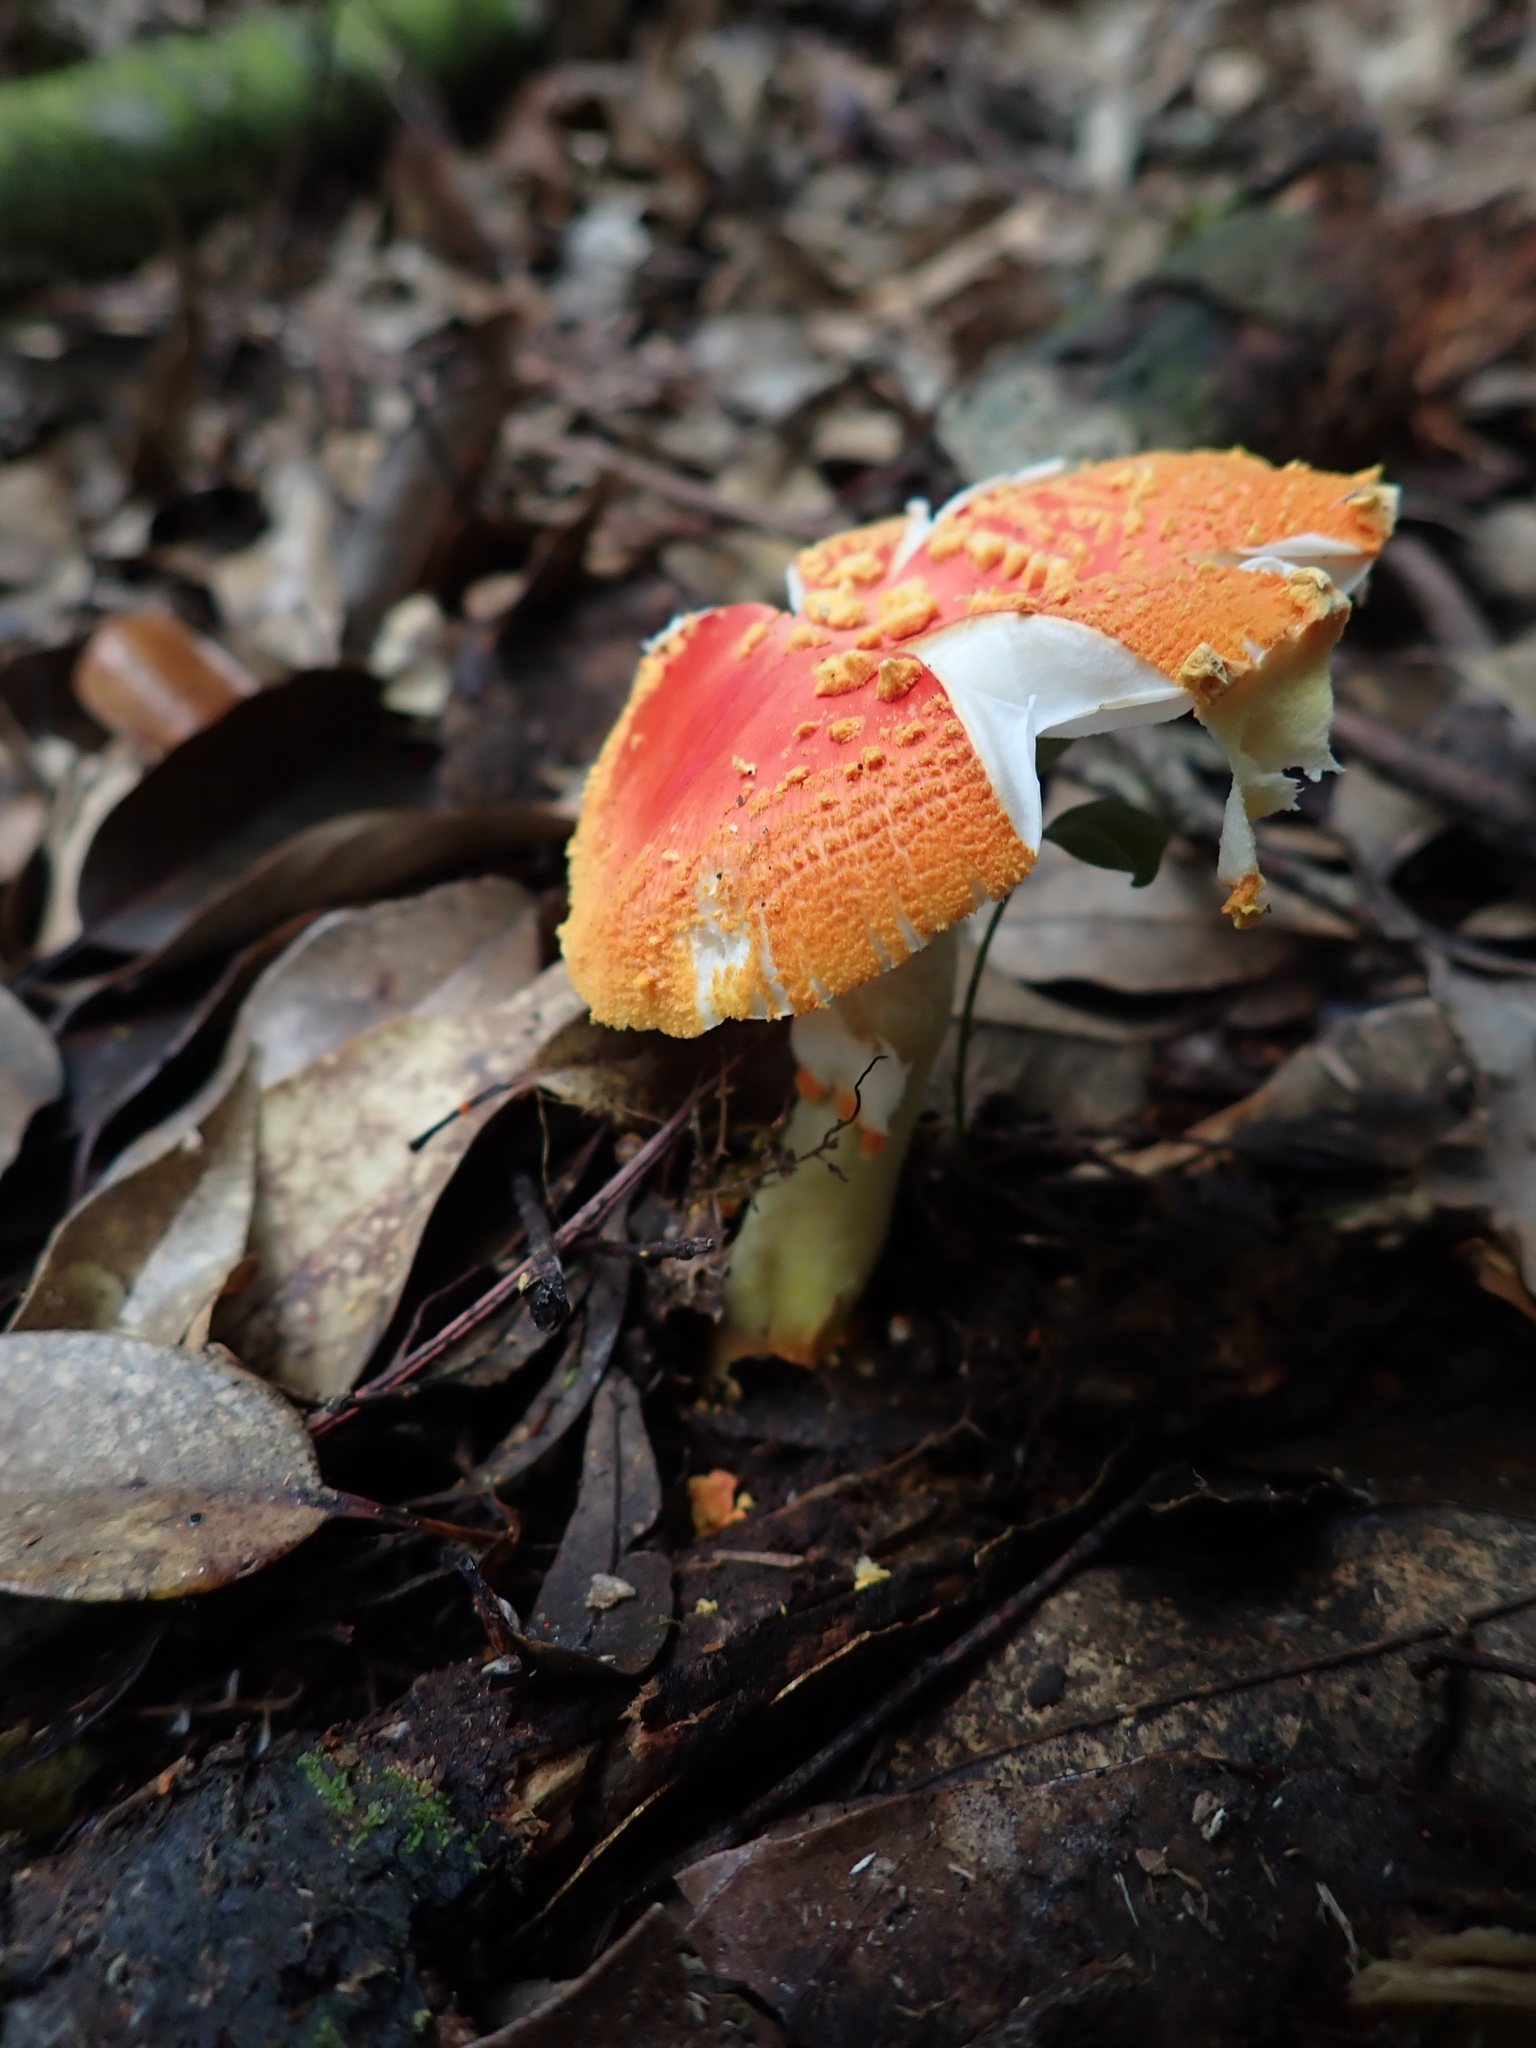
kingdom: Fungi
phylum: Basidiomycota
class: Agaricomycetes
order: Agaricales
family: Amanitaceae
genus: Amanita
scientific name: Amanita rubrovolvata
